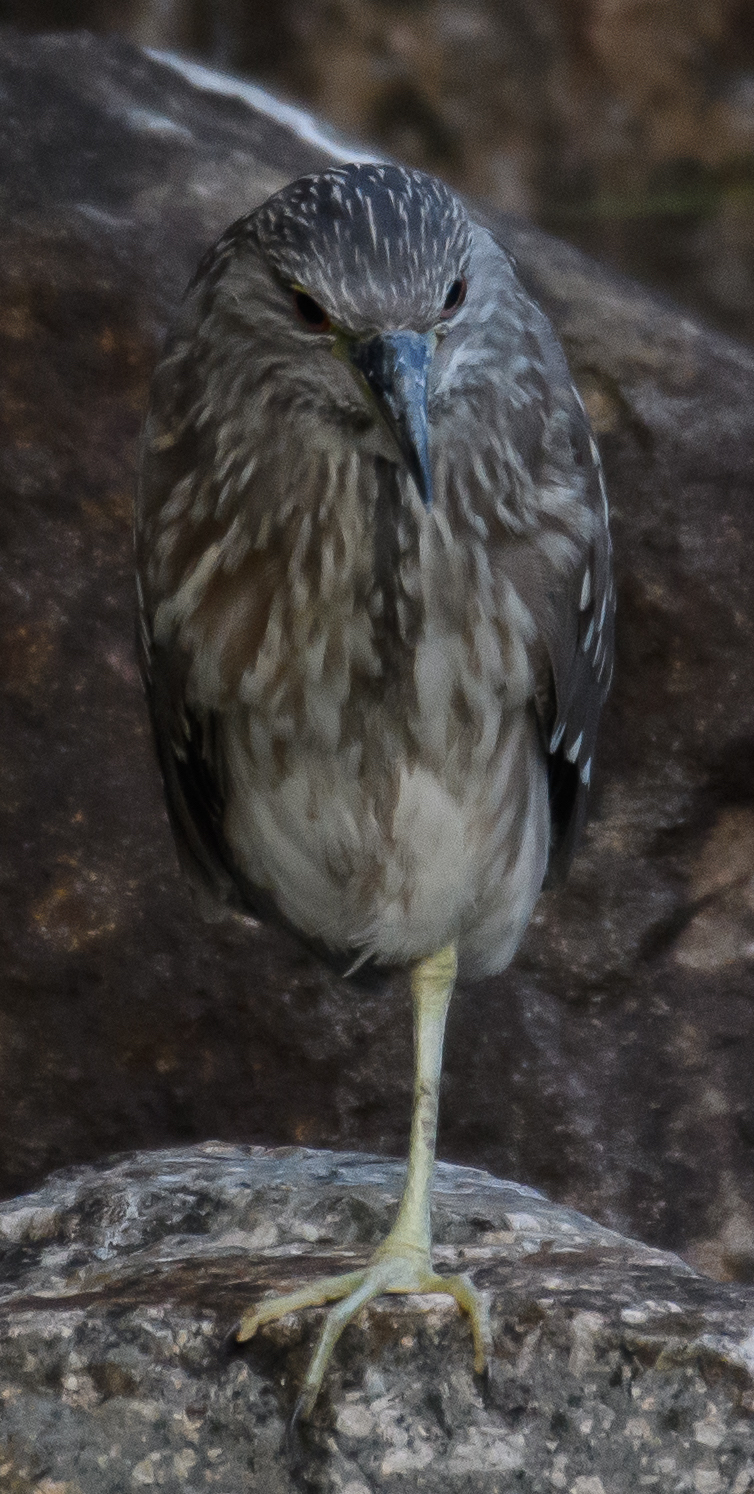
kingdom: Animalia
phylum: Chordata
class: Aves
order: Pelecaniformes
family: Ardeidae
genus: Nycticorax
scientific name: Nycticorax nycticorax
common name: Black-crowned night heron
